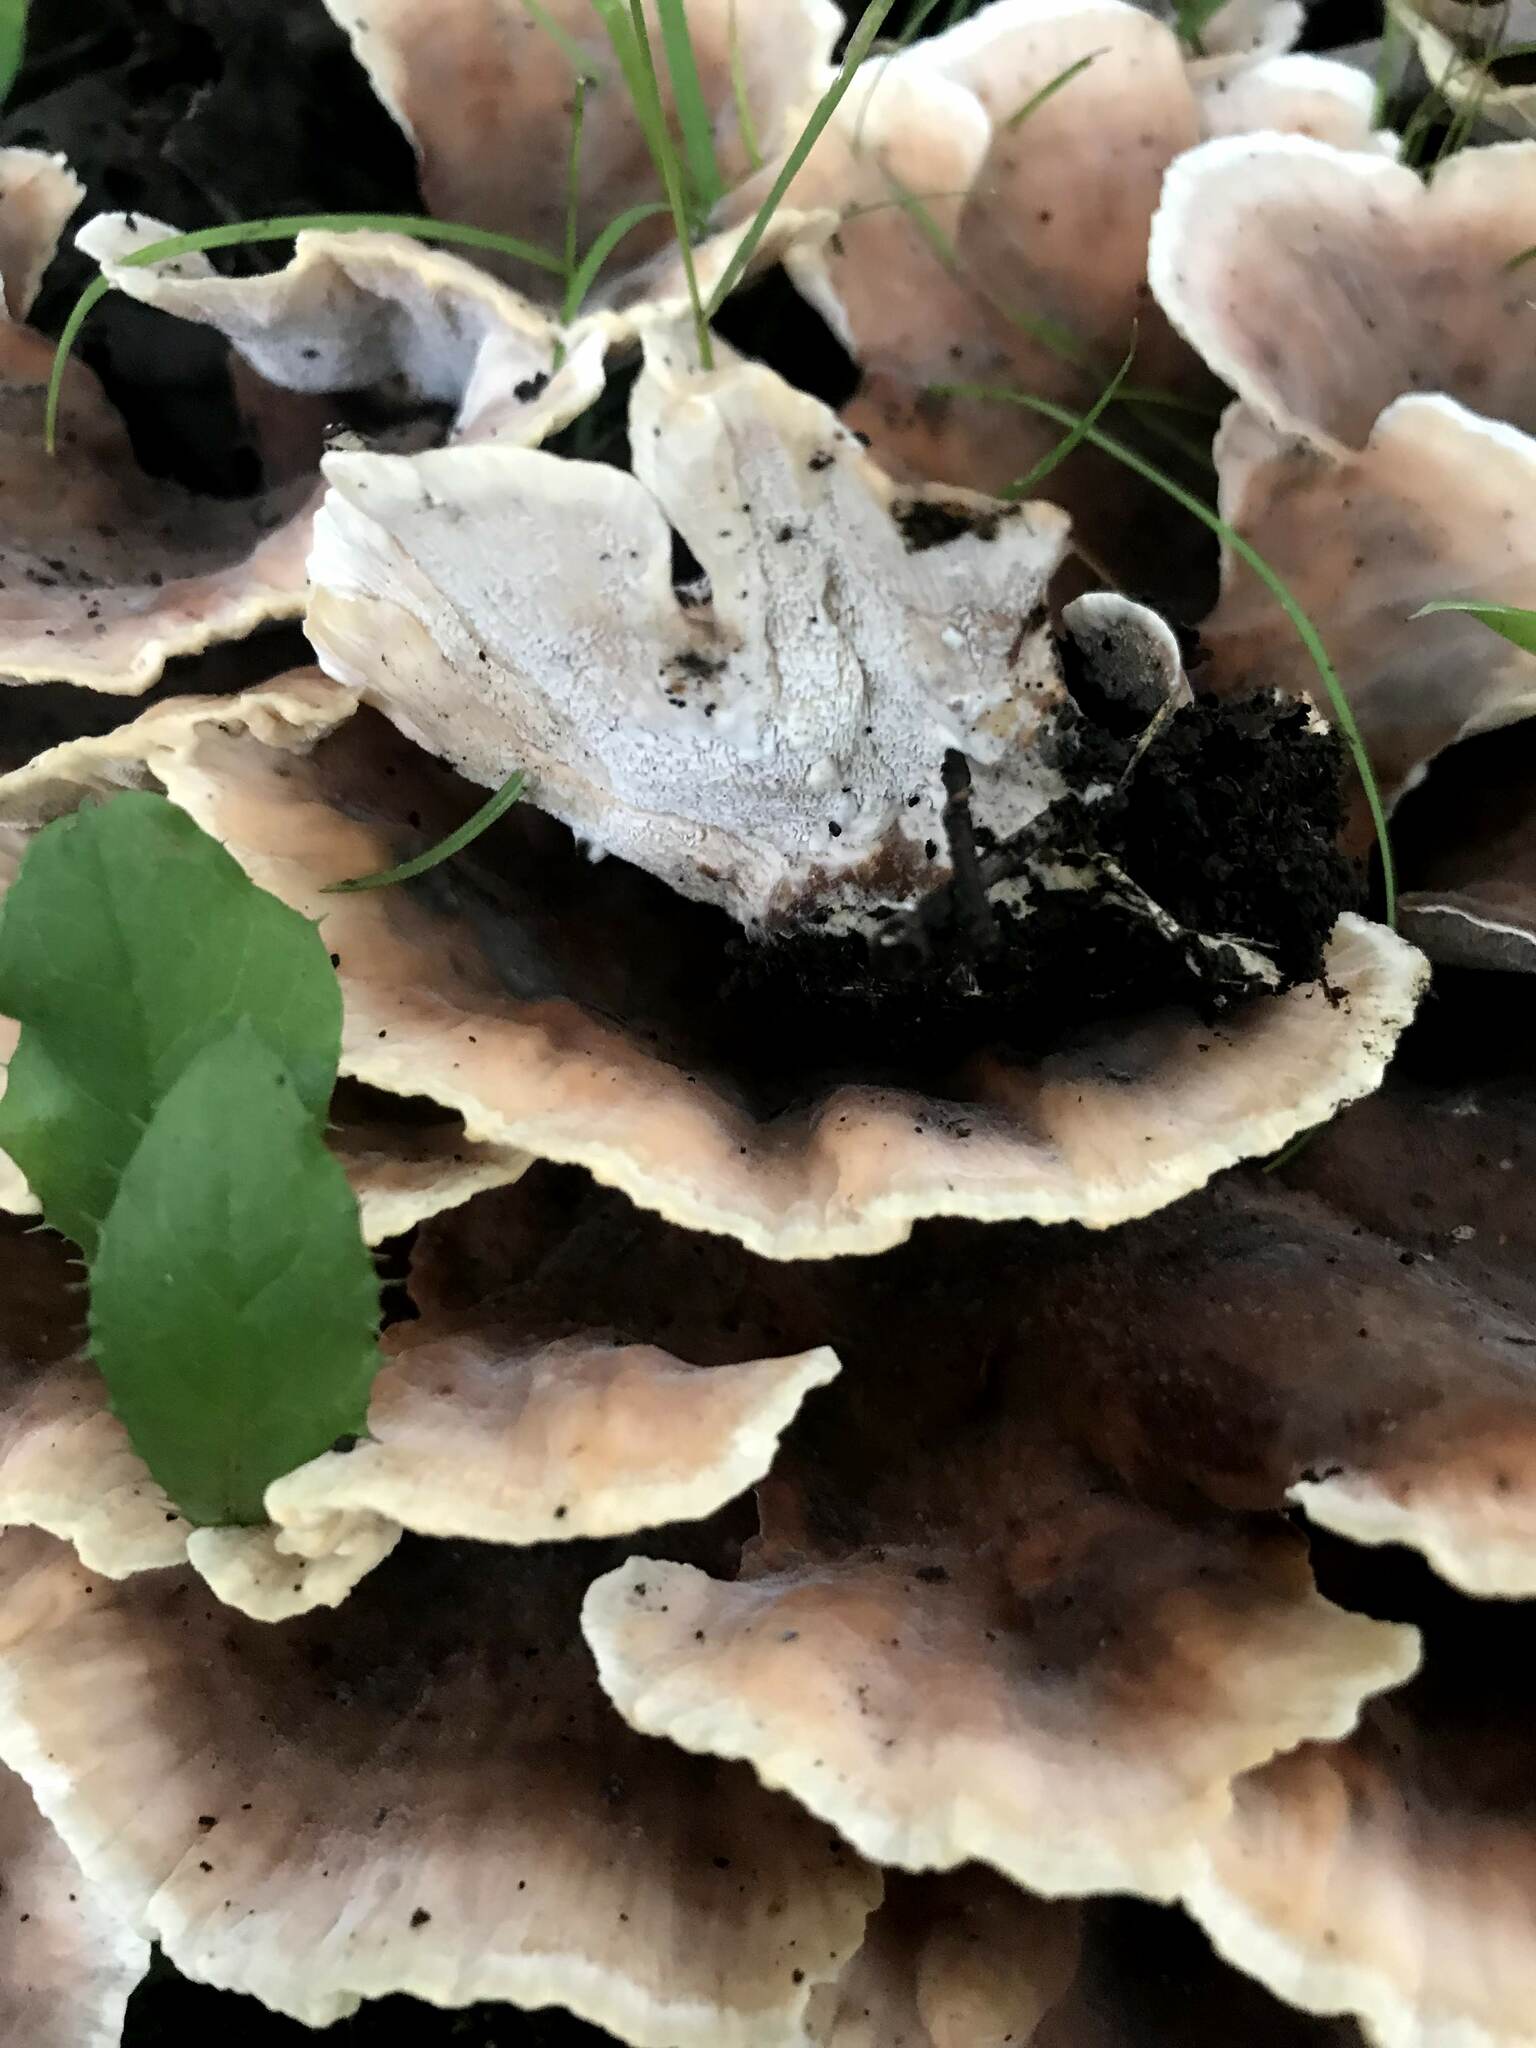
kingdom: Fungi
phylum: Basidiomycota
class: Agaricomycetes
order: Polyporales
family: Podoscyphaceae
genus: Abortiporus
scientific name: Abortiporus biennis
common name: Blushing rosette
